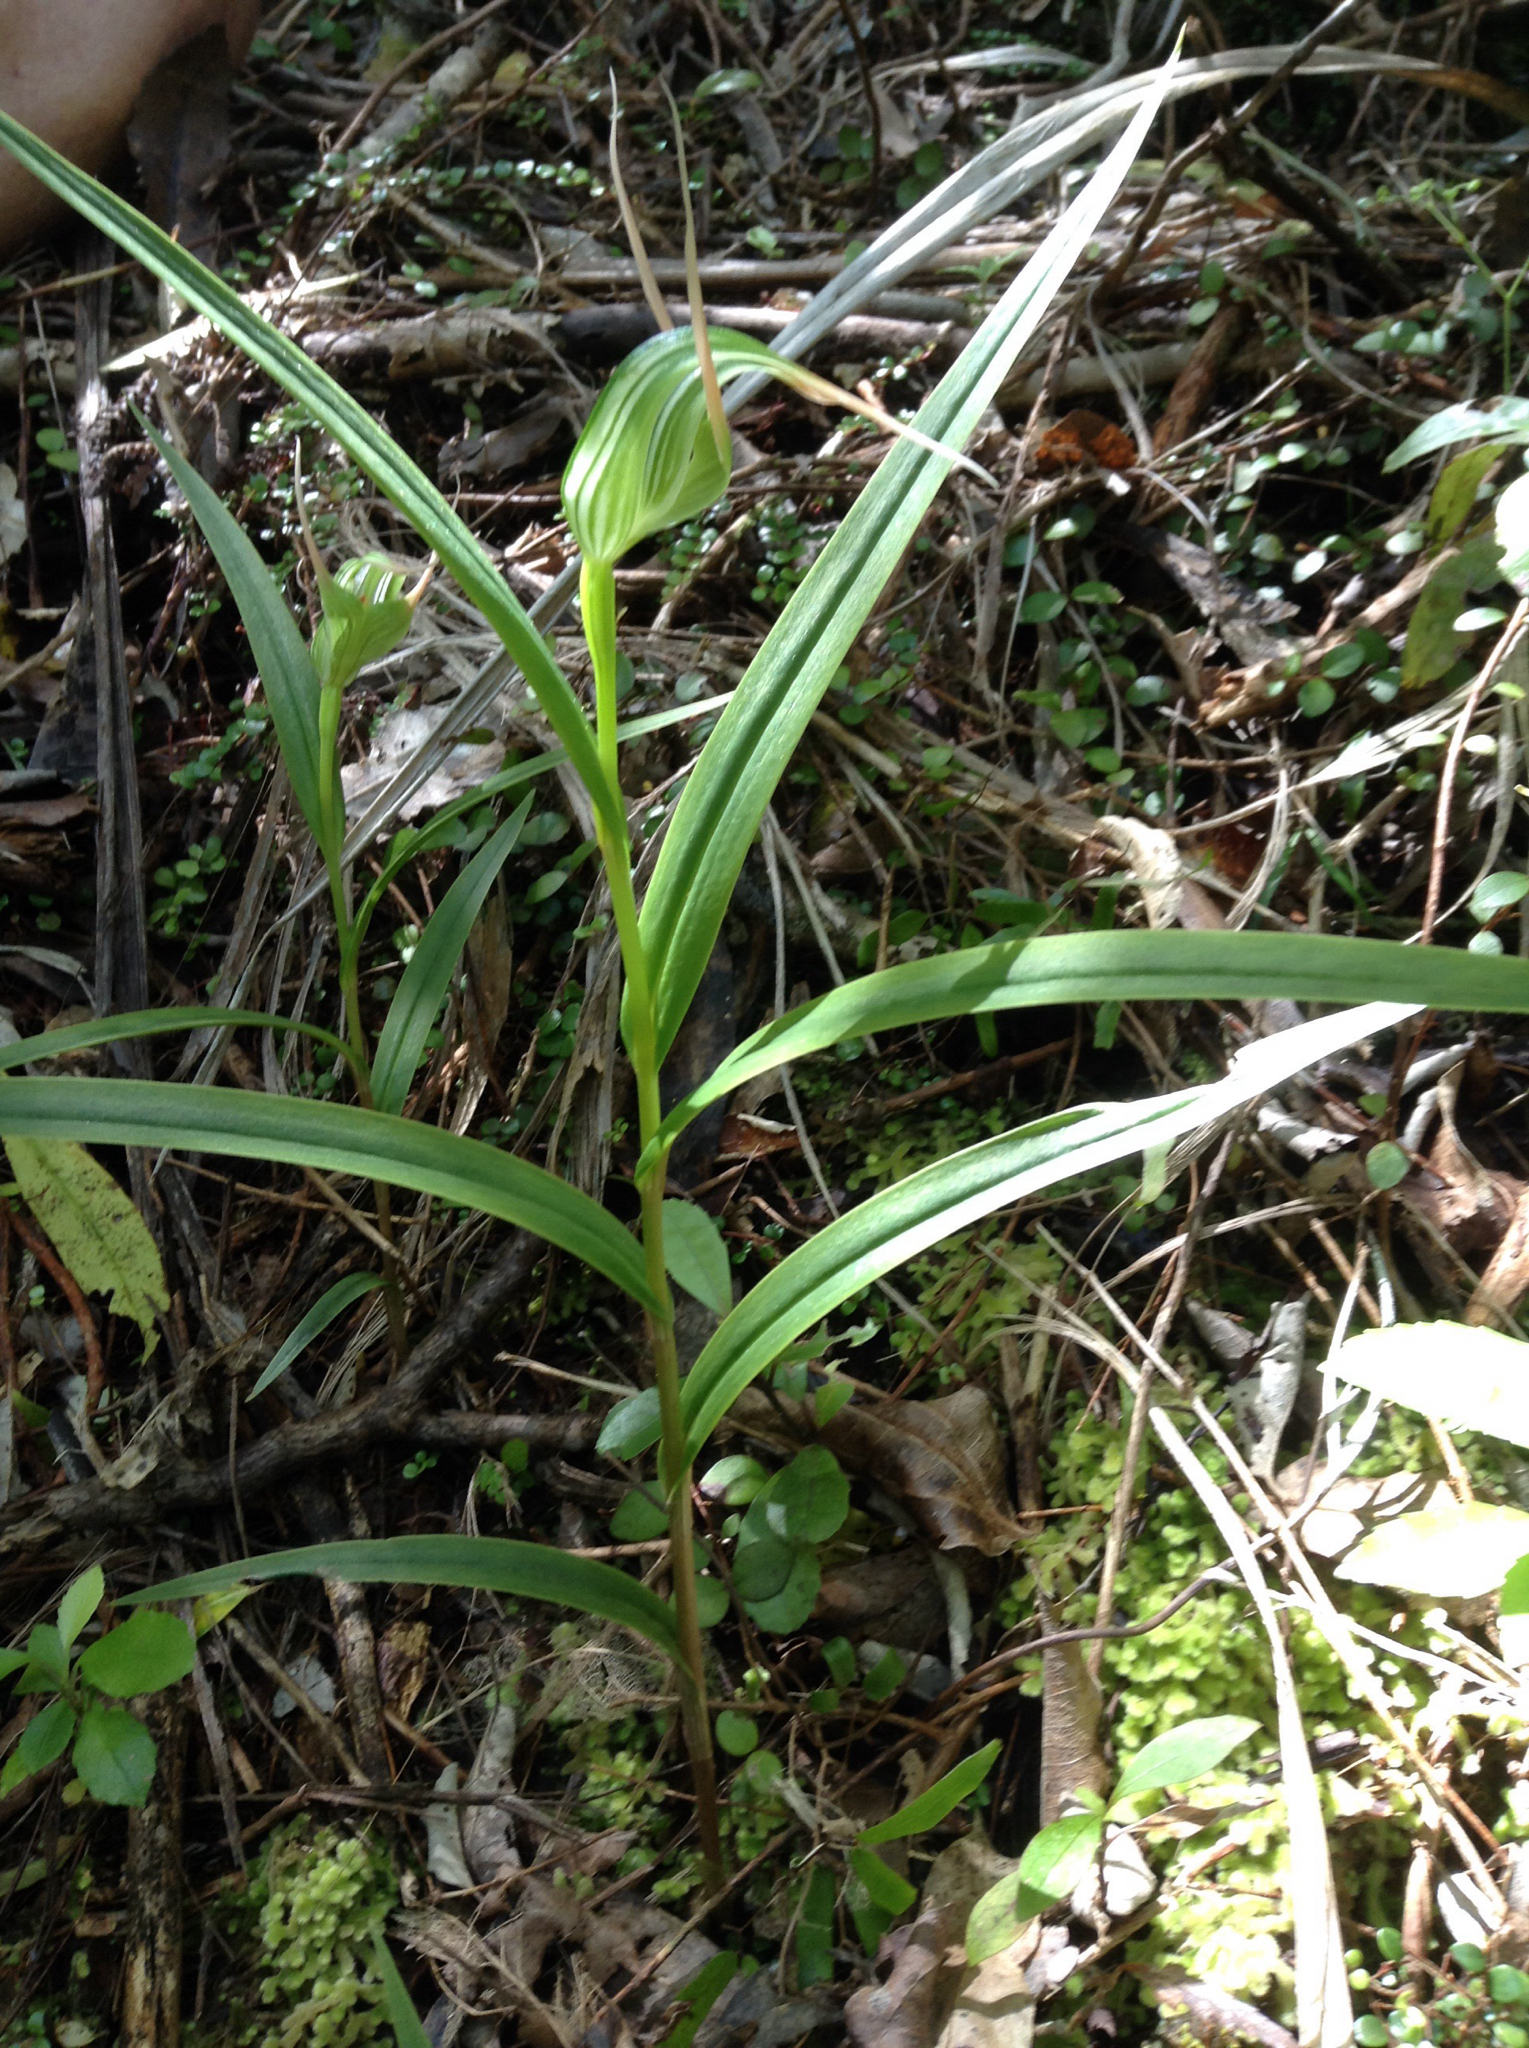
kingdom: Plantae
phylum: Tracheophyta
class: Liliopsida
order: Asparagales
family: Orchidaceae
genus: Pterostylis
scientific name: Pterostylis banksii
